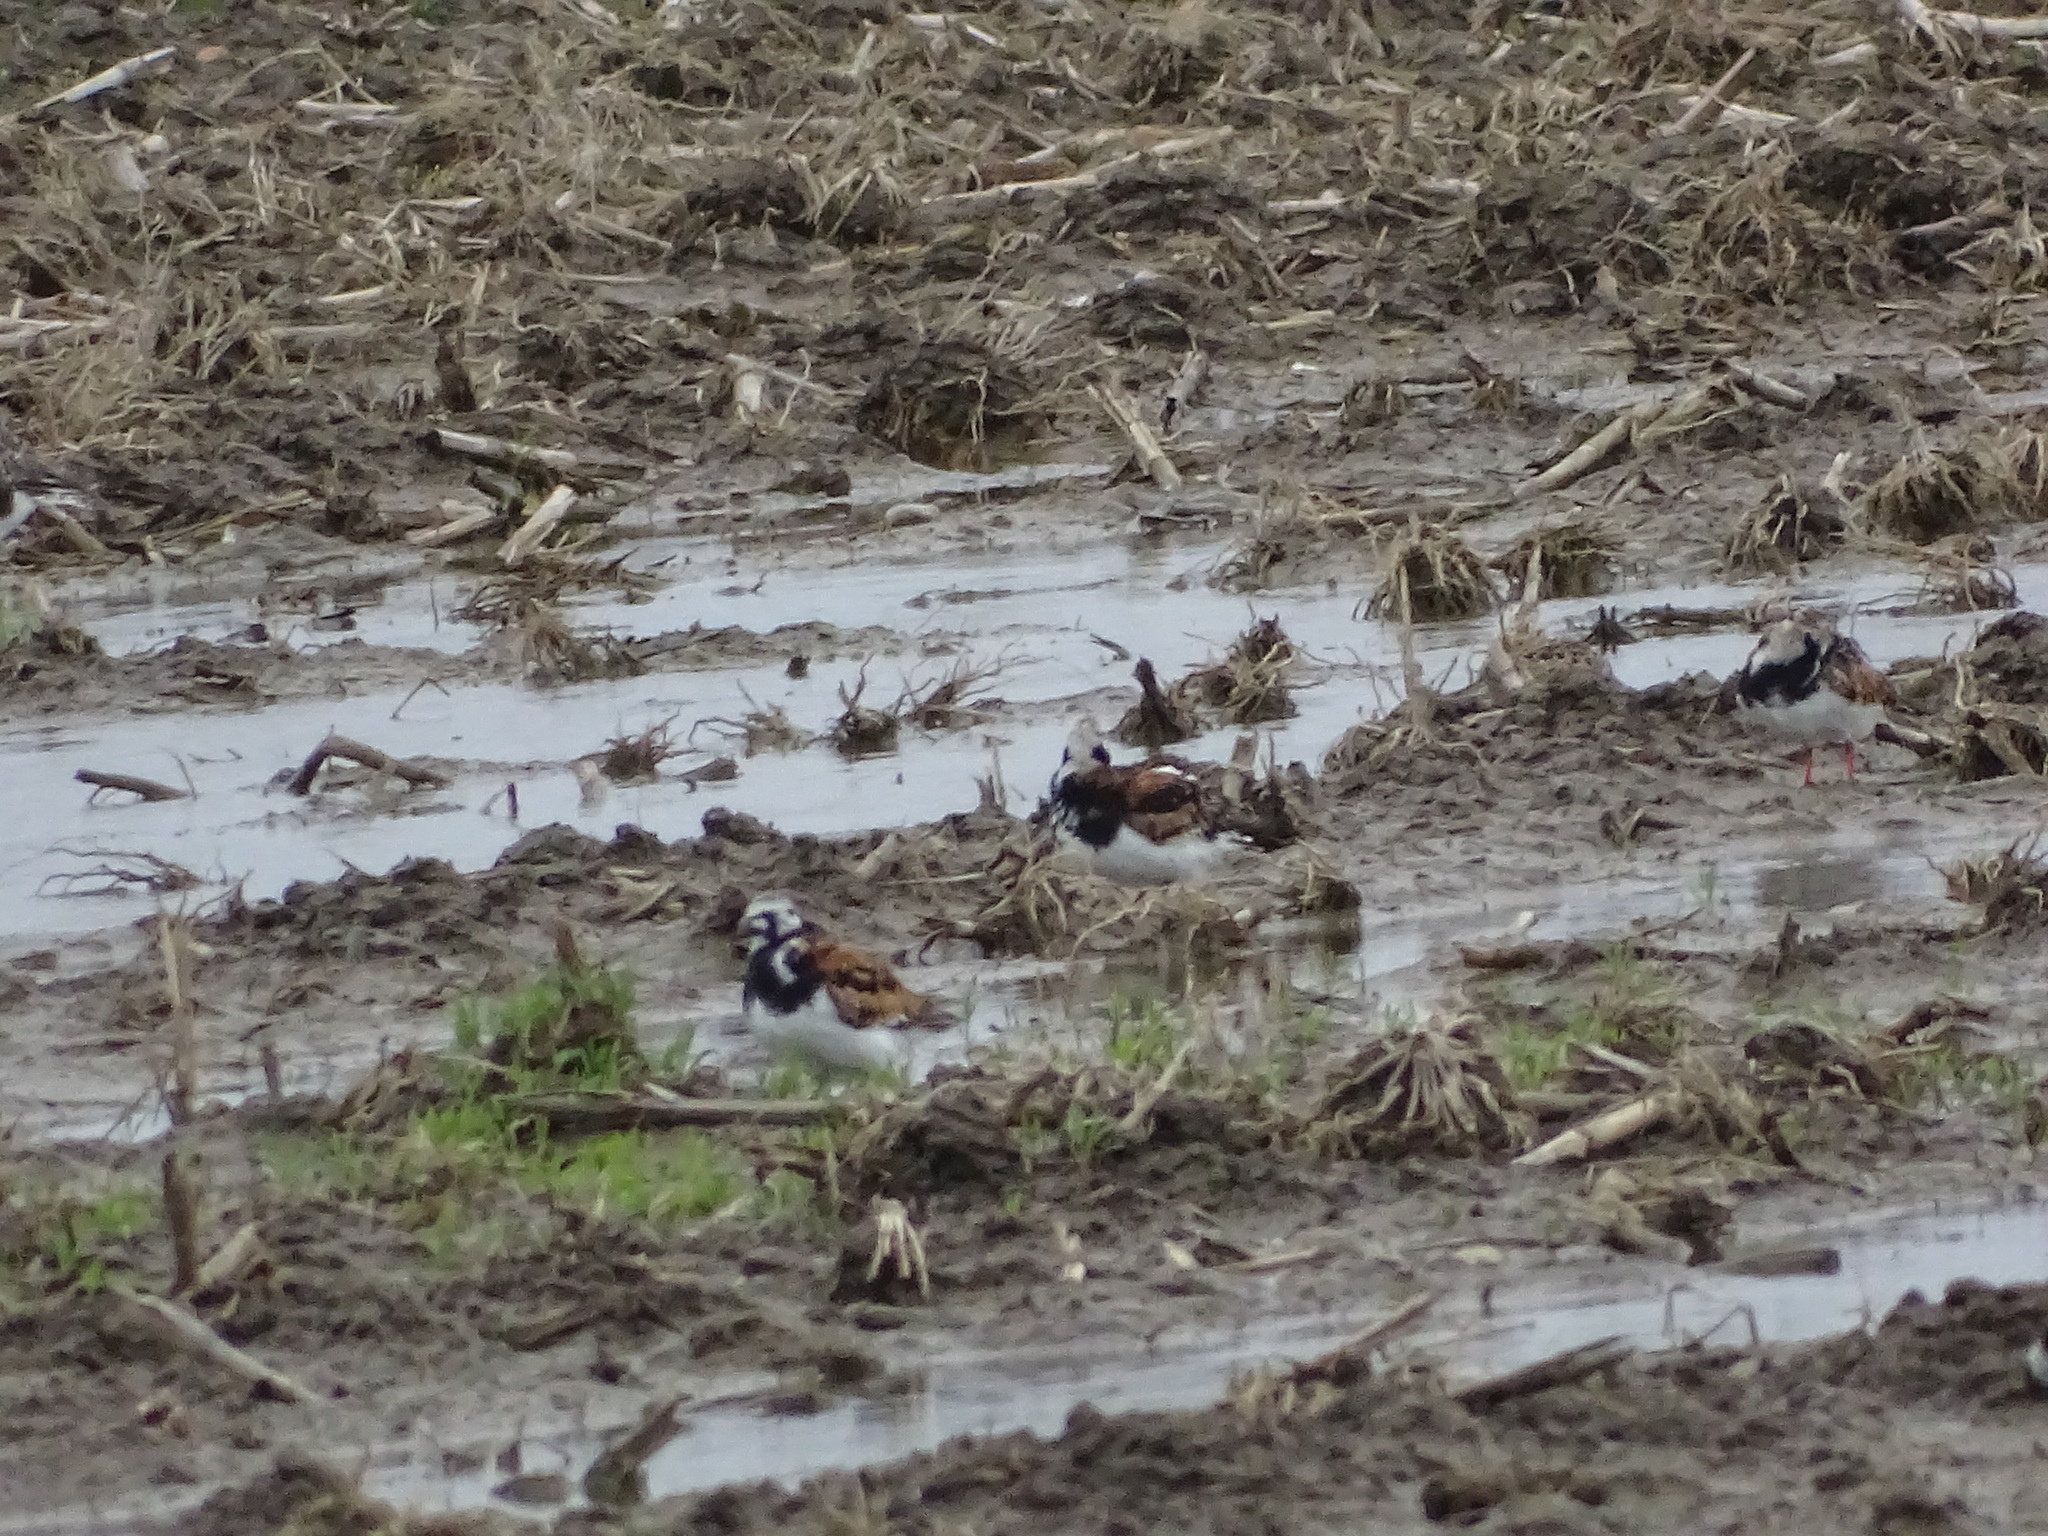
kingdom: Animalia
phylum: Chordata
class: Aves
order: Charadriiformes
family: Scolopacidae
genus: Arenaria
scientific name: Arenaria interpres
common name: Ruddy turnstone
